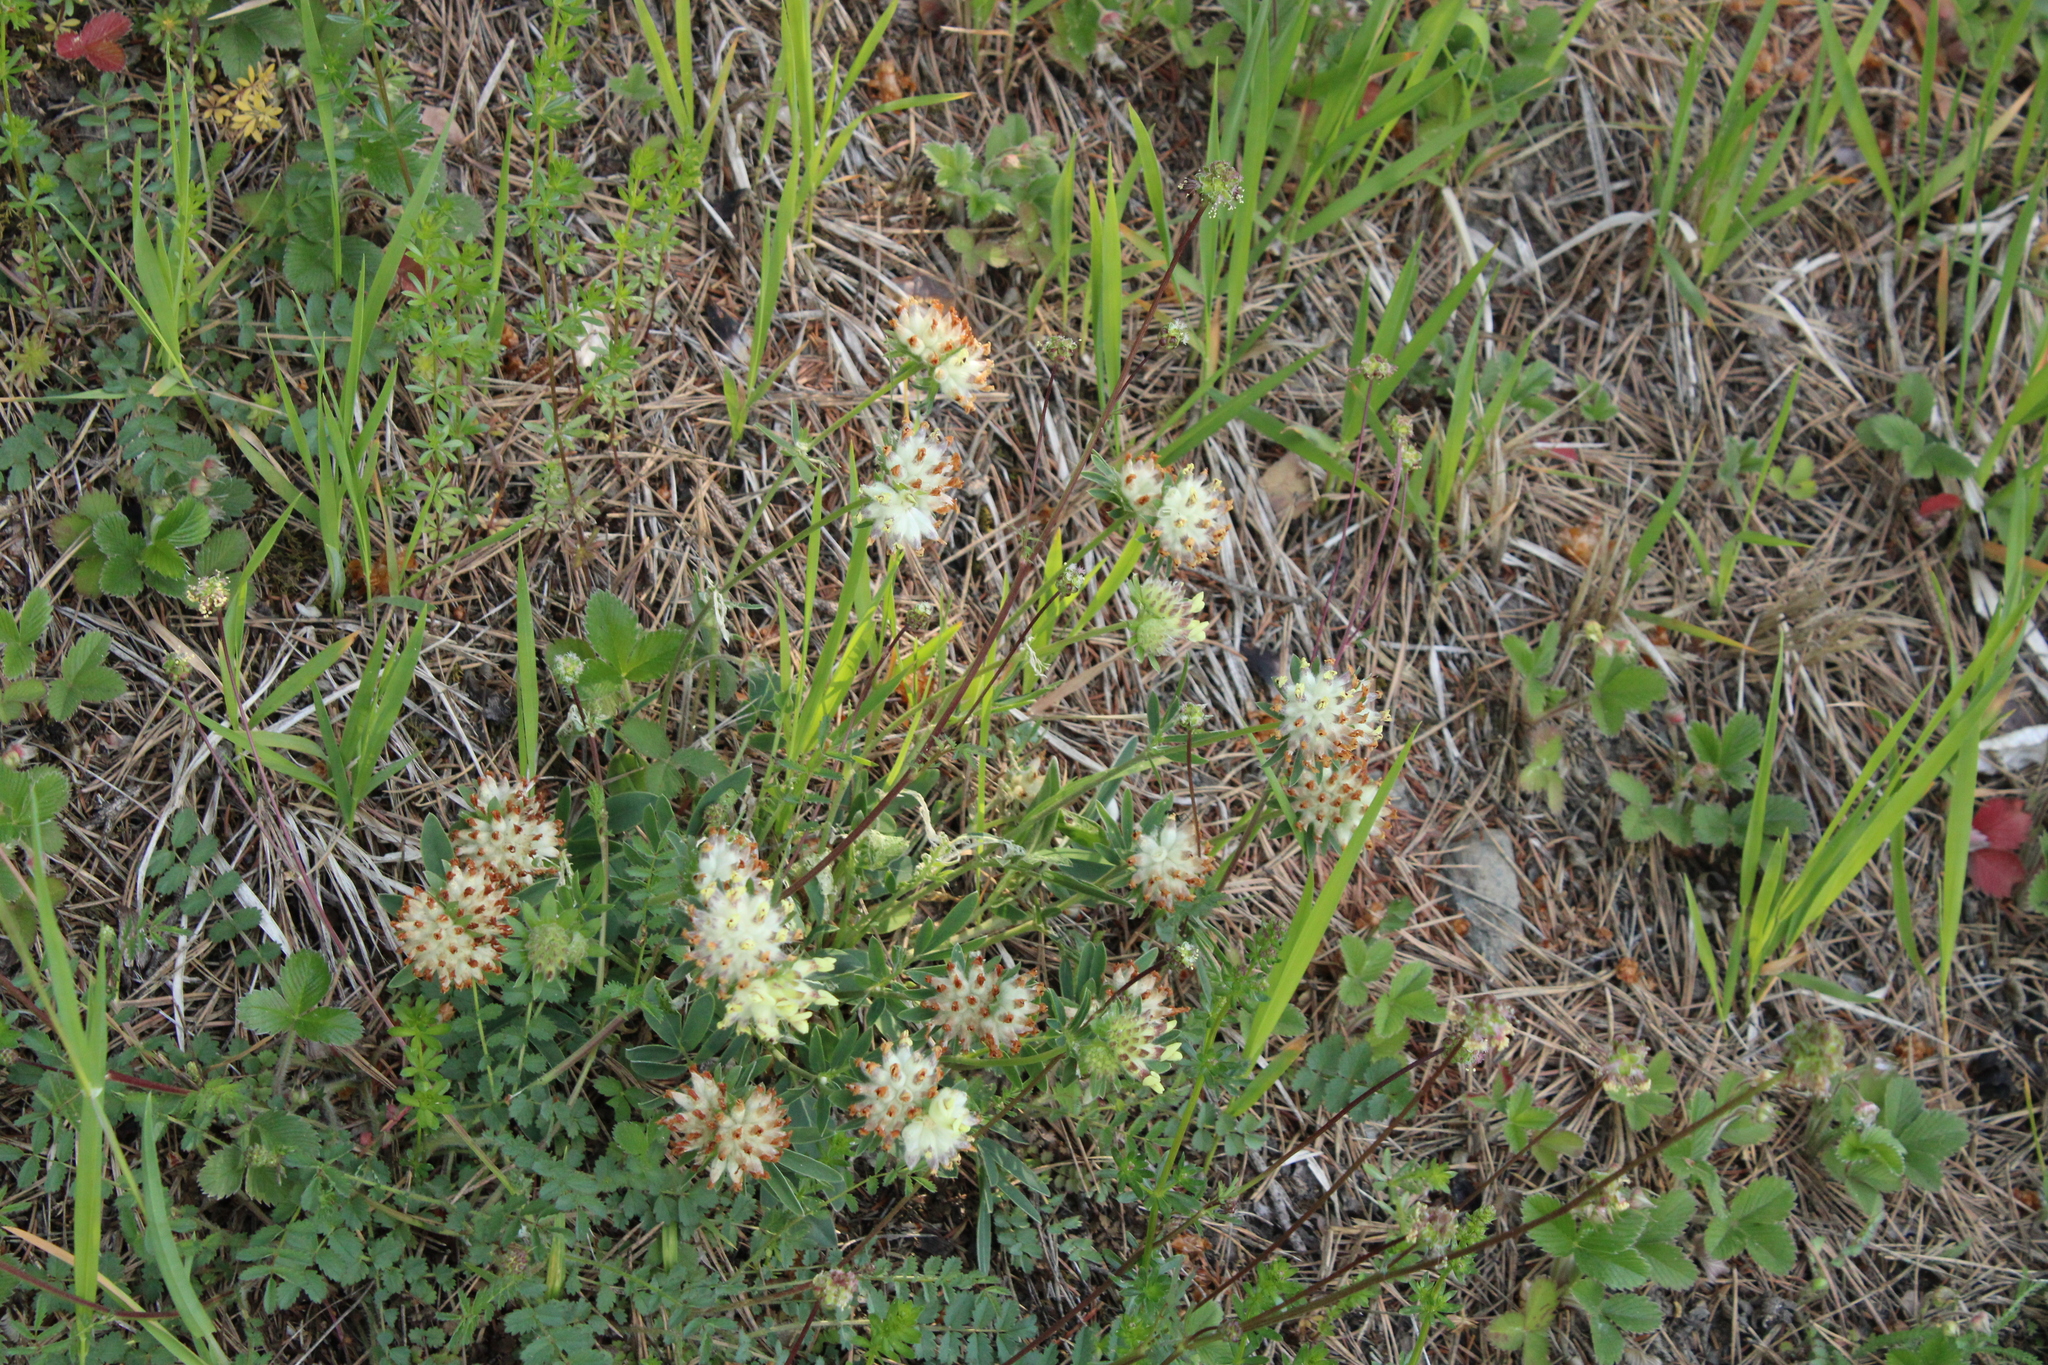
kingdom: Plantae
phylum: Tracheophyta
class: Magnoliopsida
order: Fabales
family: Fabaceae
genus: Anthyllis
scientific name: Anthyllis vulneraria
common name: Kidney vetch
